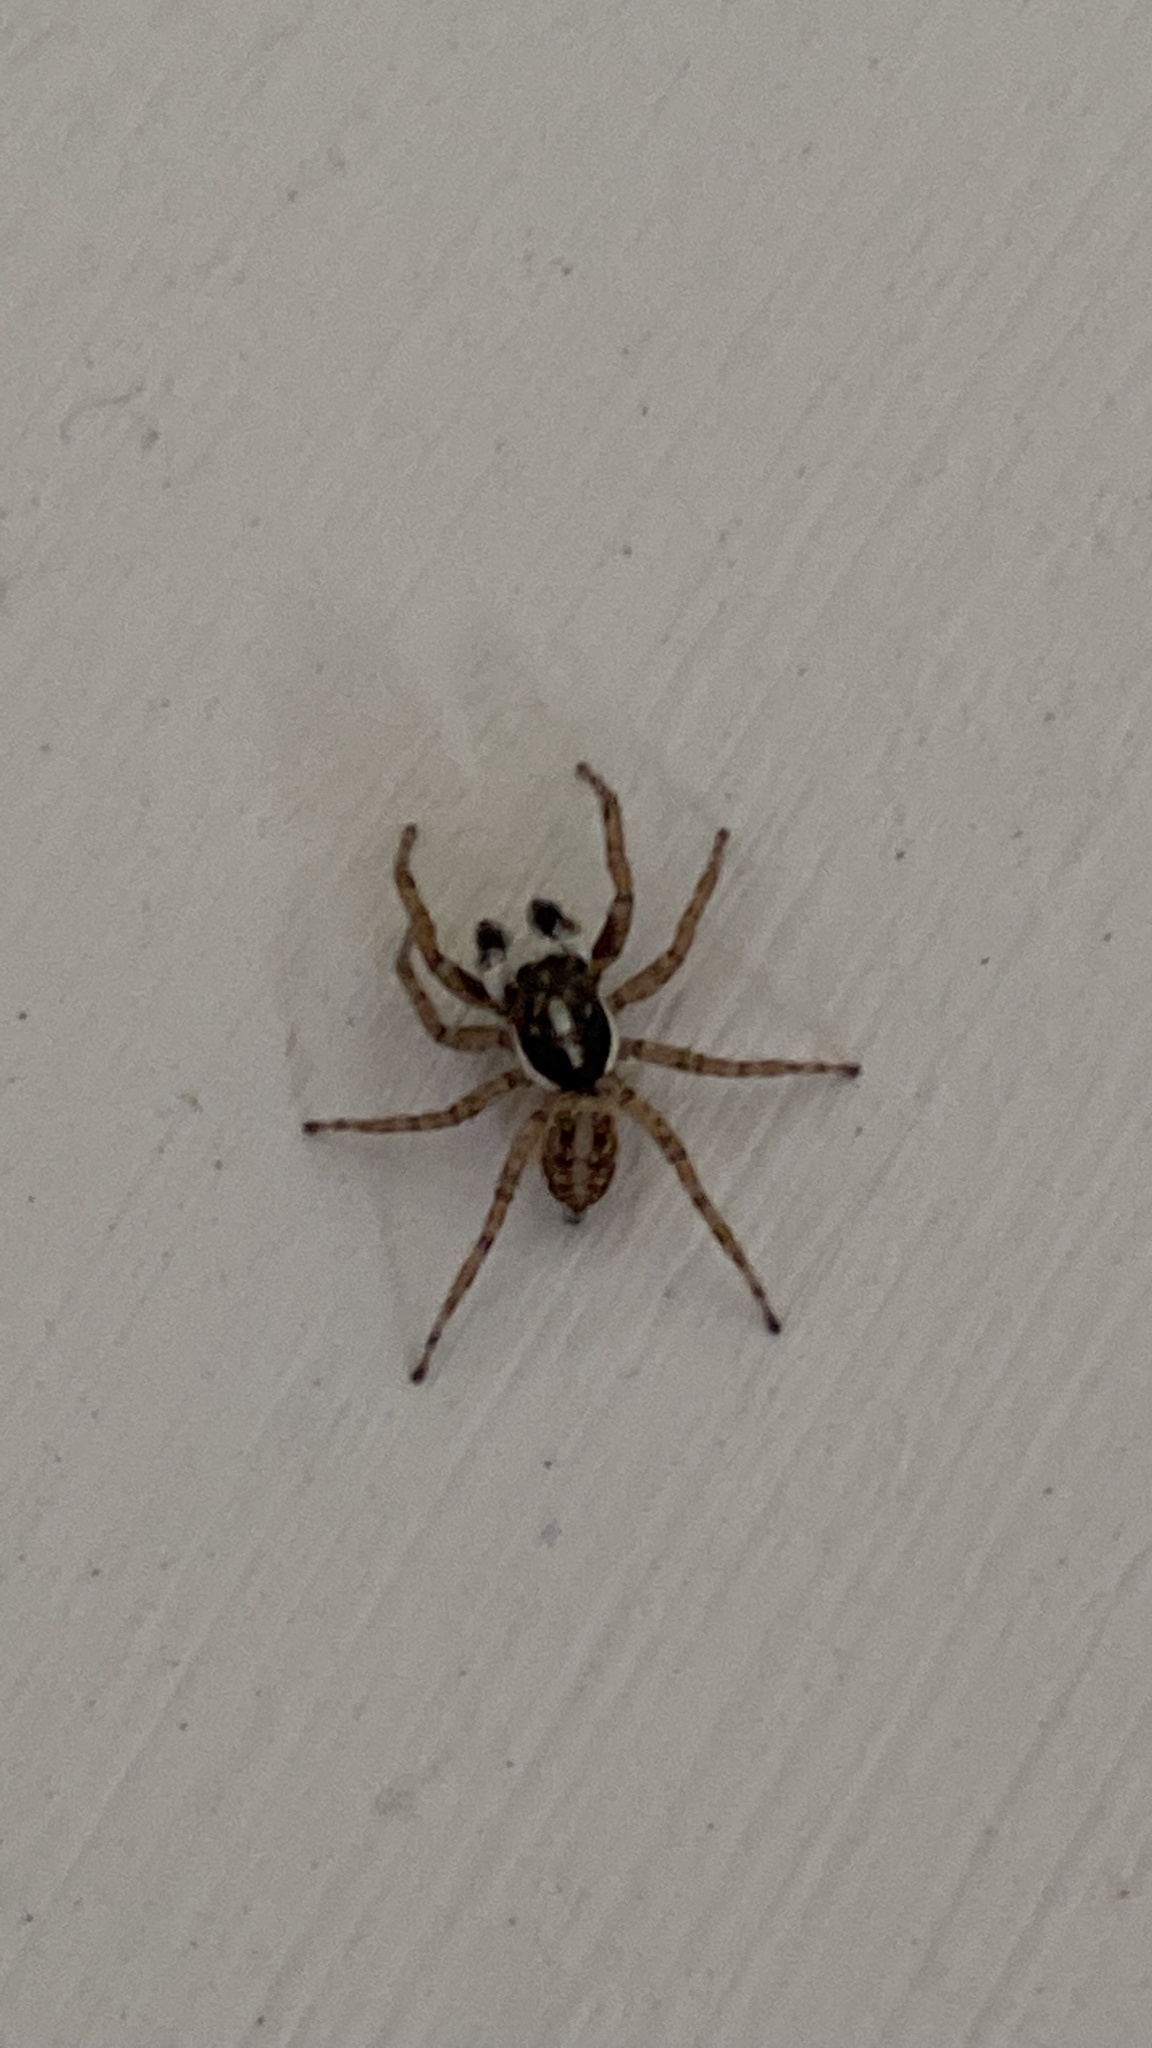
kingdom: Animalia
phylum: Arthropoda
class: Arachnida
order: Araneae
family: Salticidae
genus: Menemerus
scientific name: Menemerus semilimbatus
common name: Jumping spider
